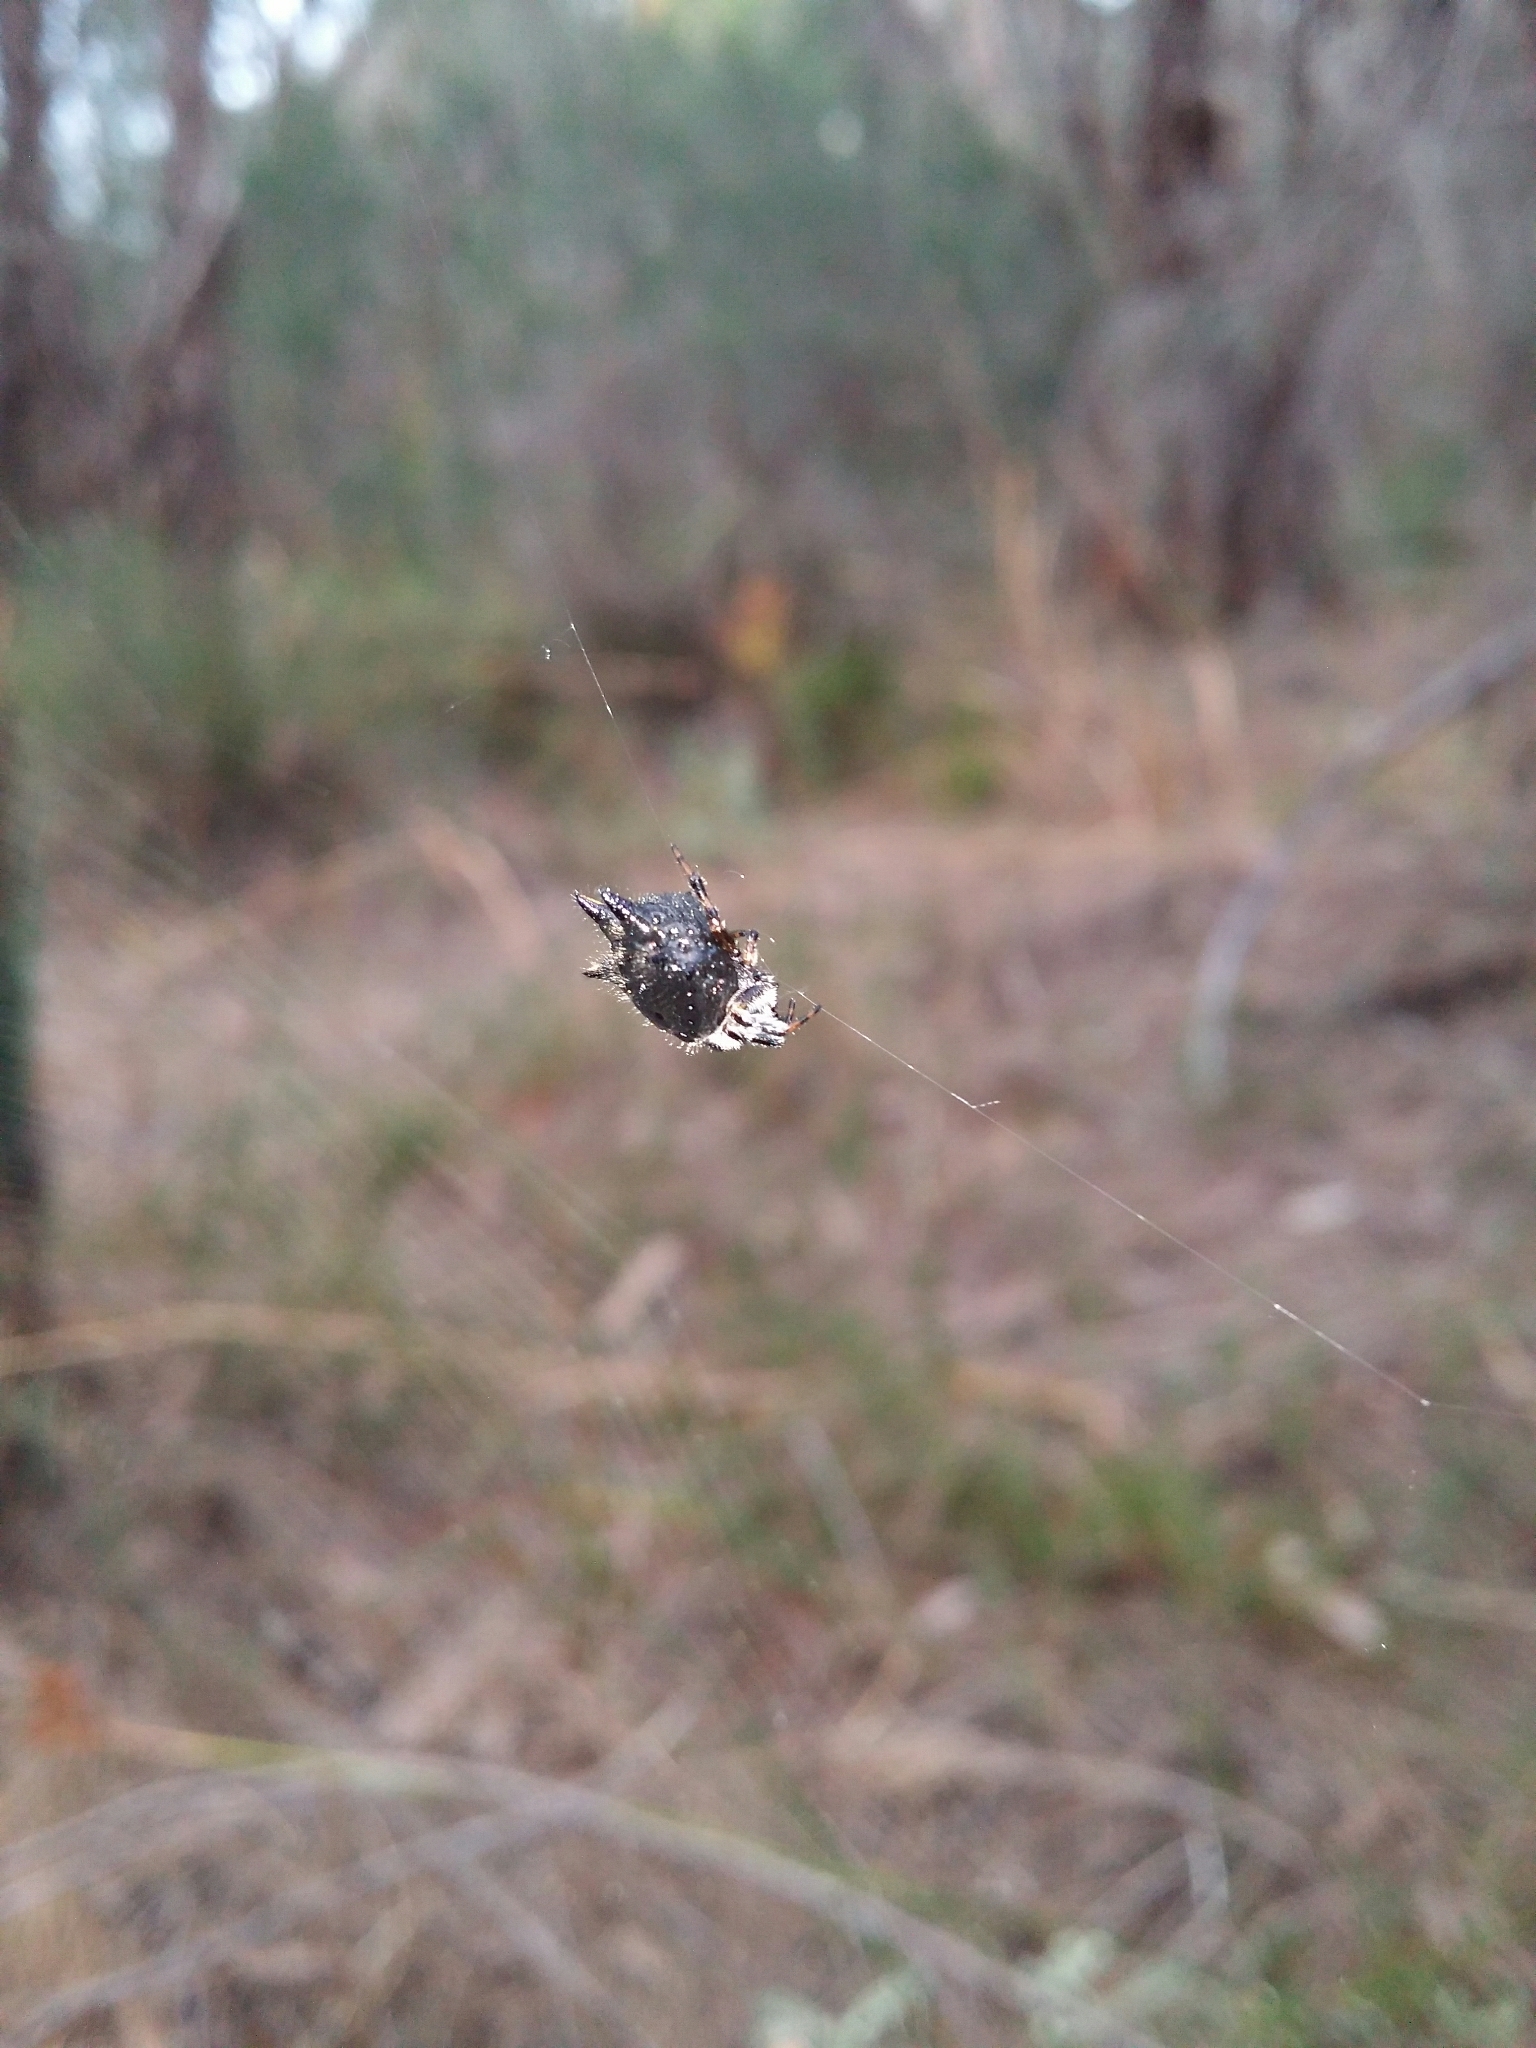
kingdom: Animalia
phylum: Arthropoda
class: Arachnida
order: Araneae
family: Araneidae
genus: Austracantha
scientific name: Austracantha minax
